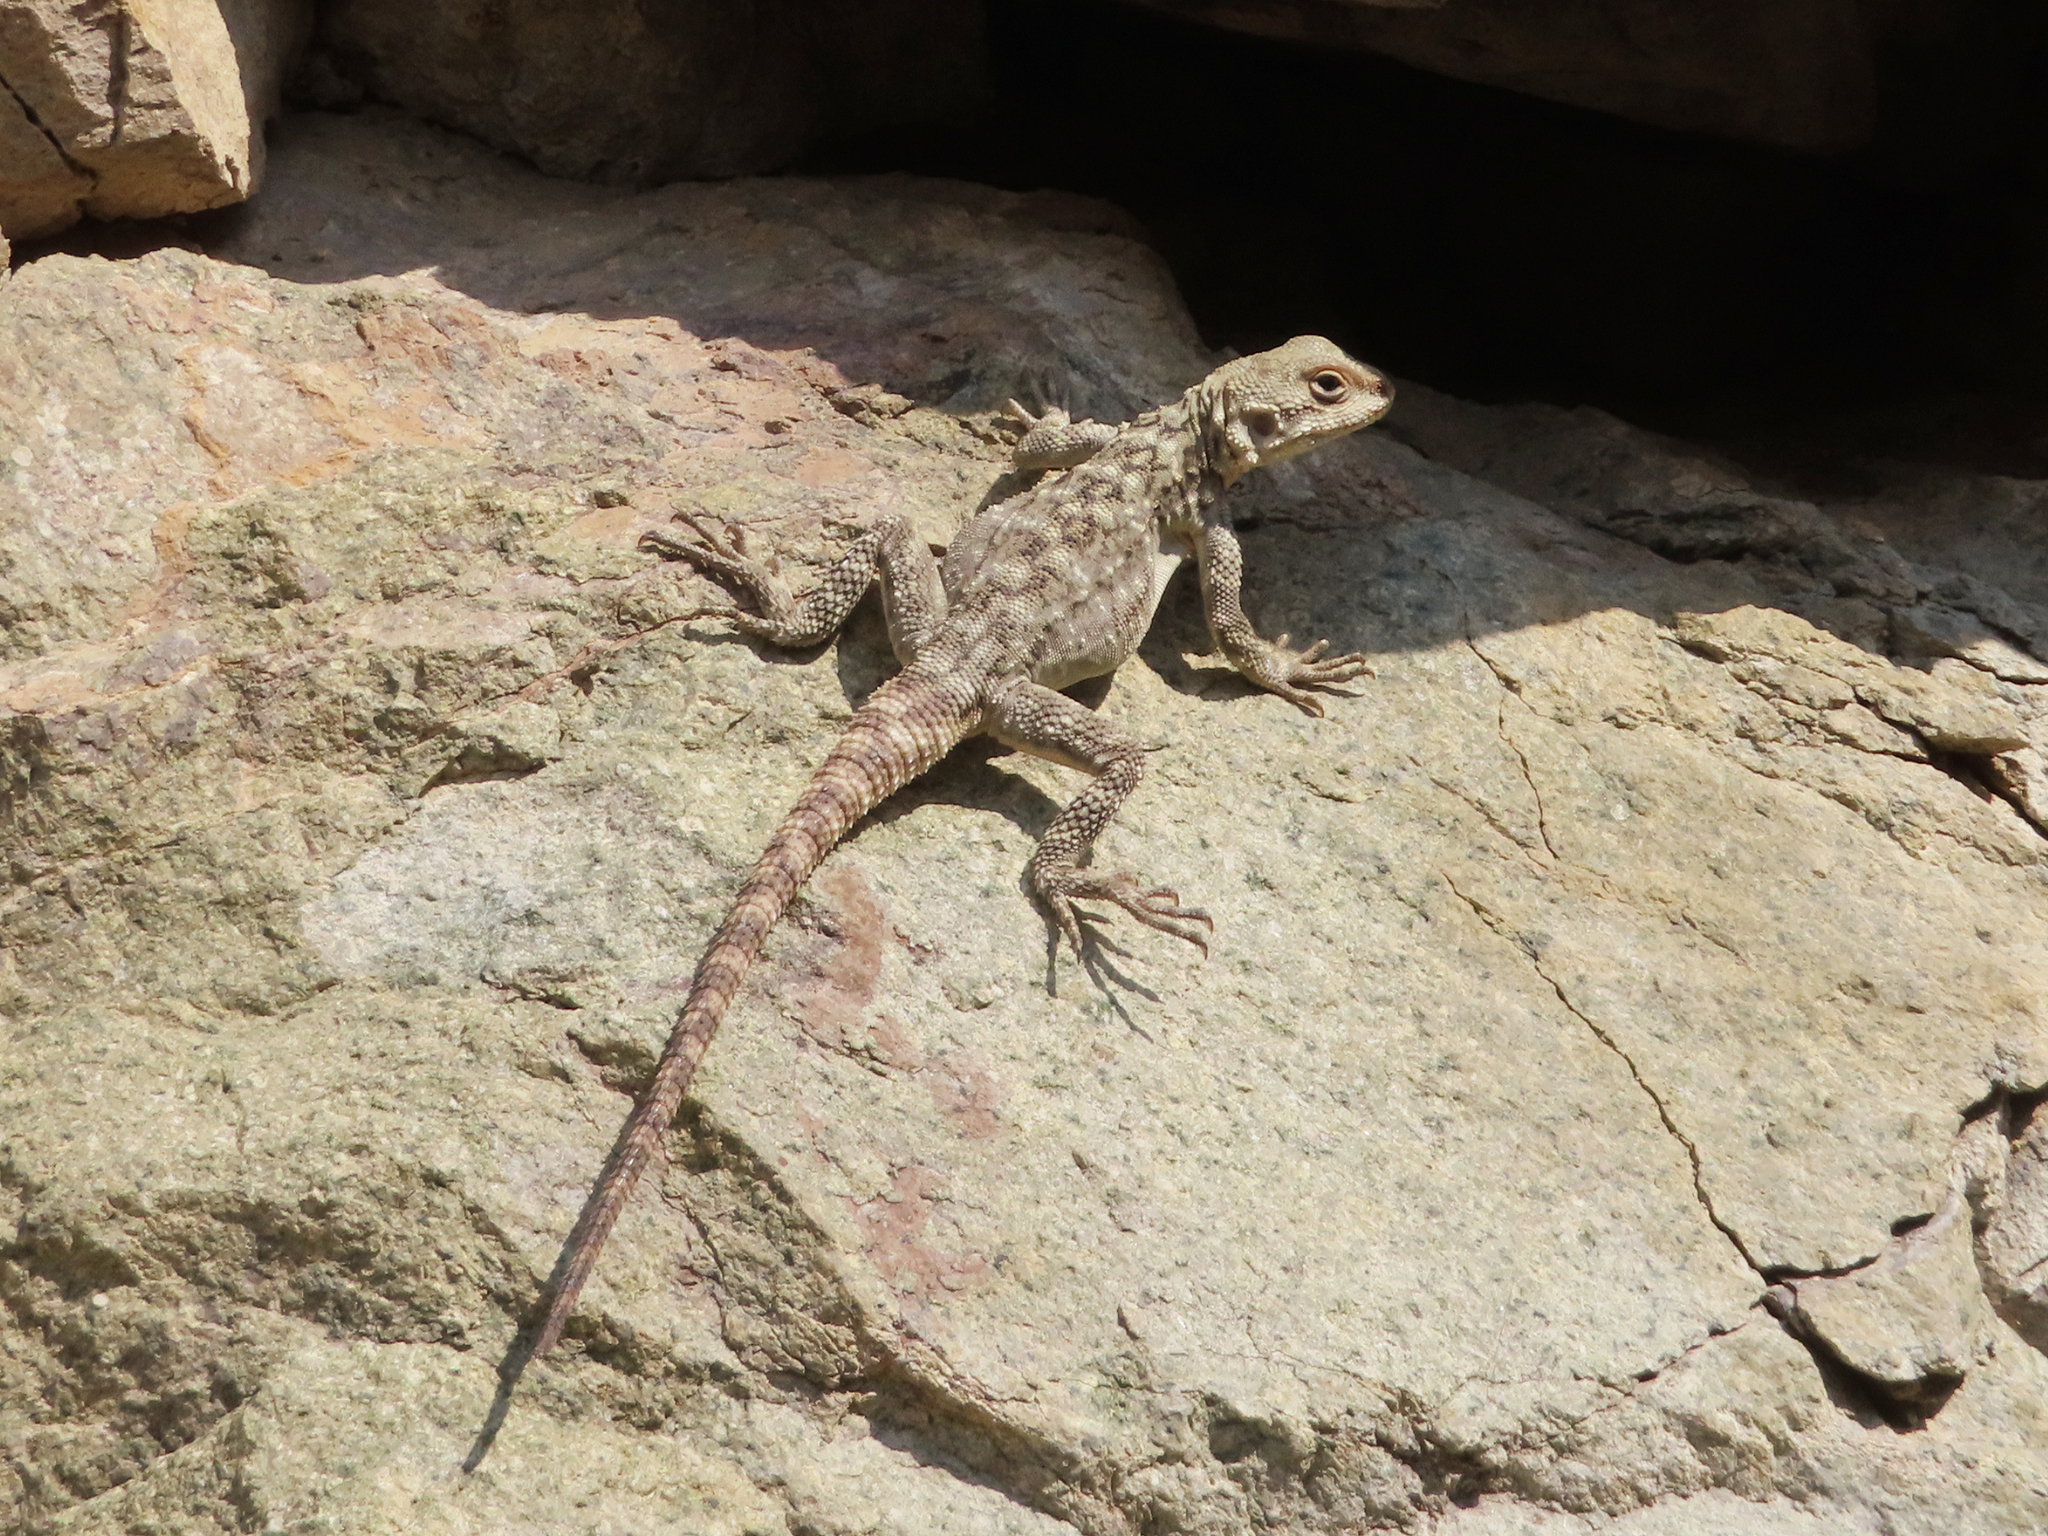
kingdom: Animalia
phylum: Chordata
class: Squamata
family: Agamidae
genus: Paralaudakia
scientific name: Paralaudakia caucasia
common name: Caucasian agama
